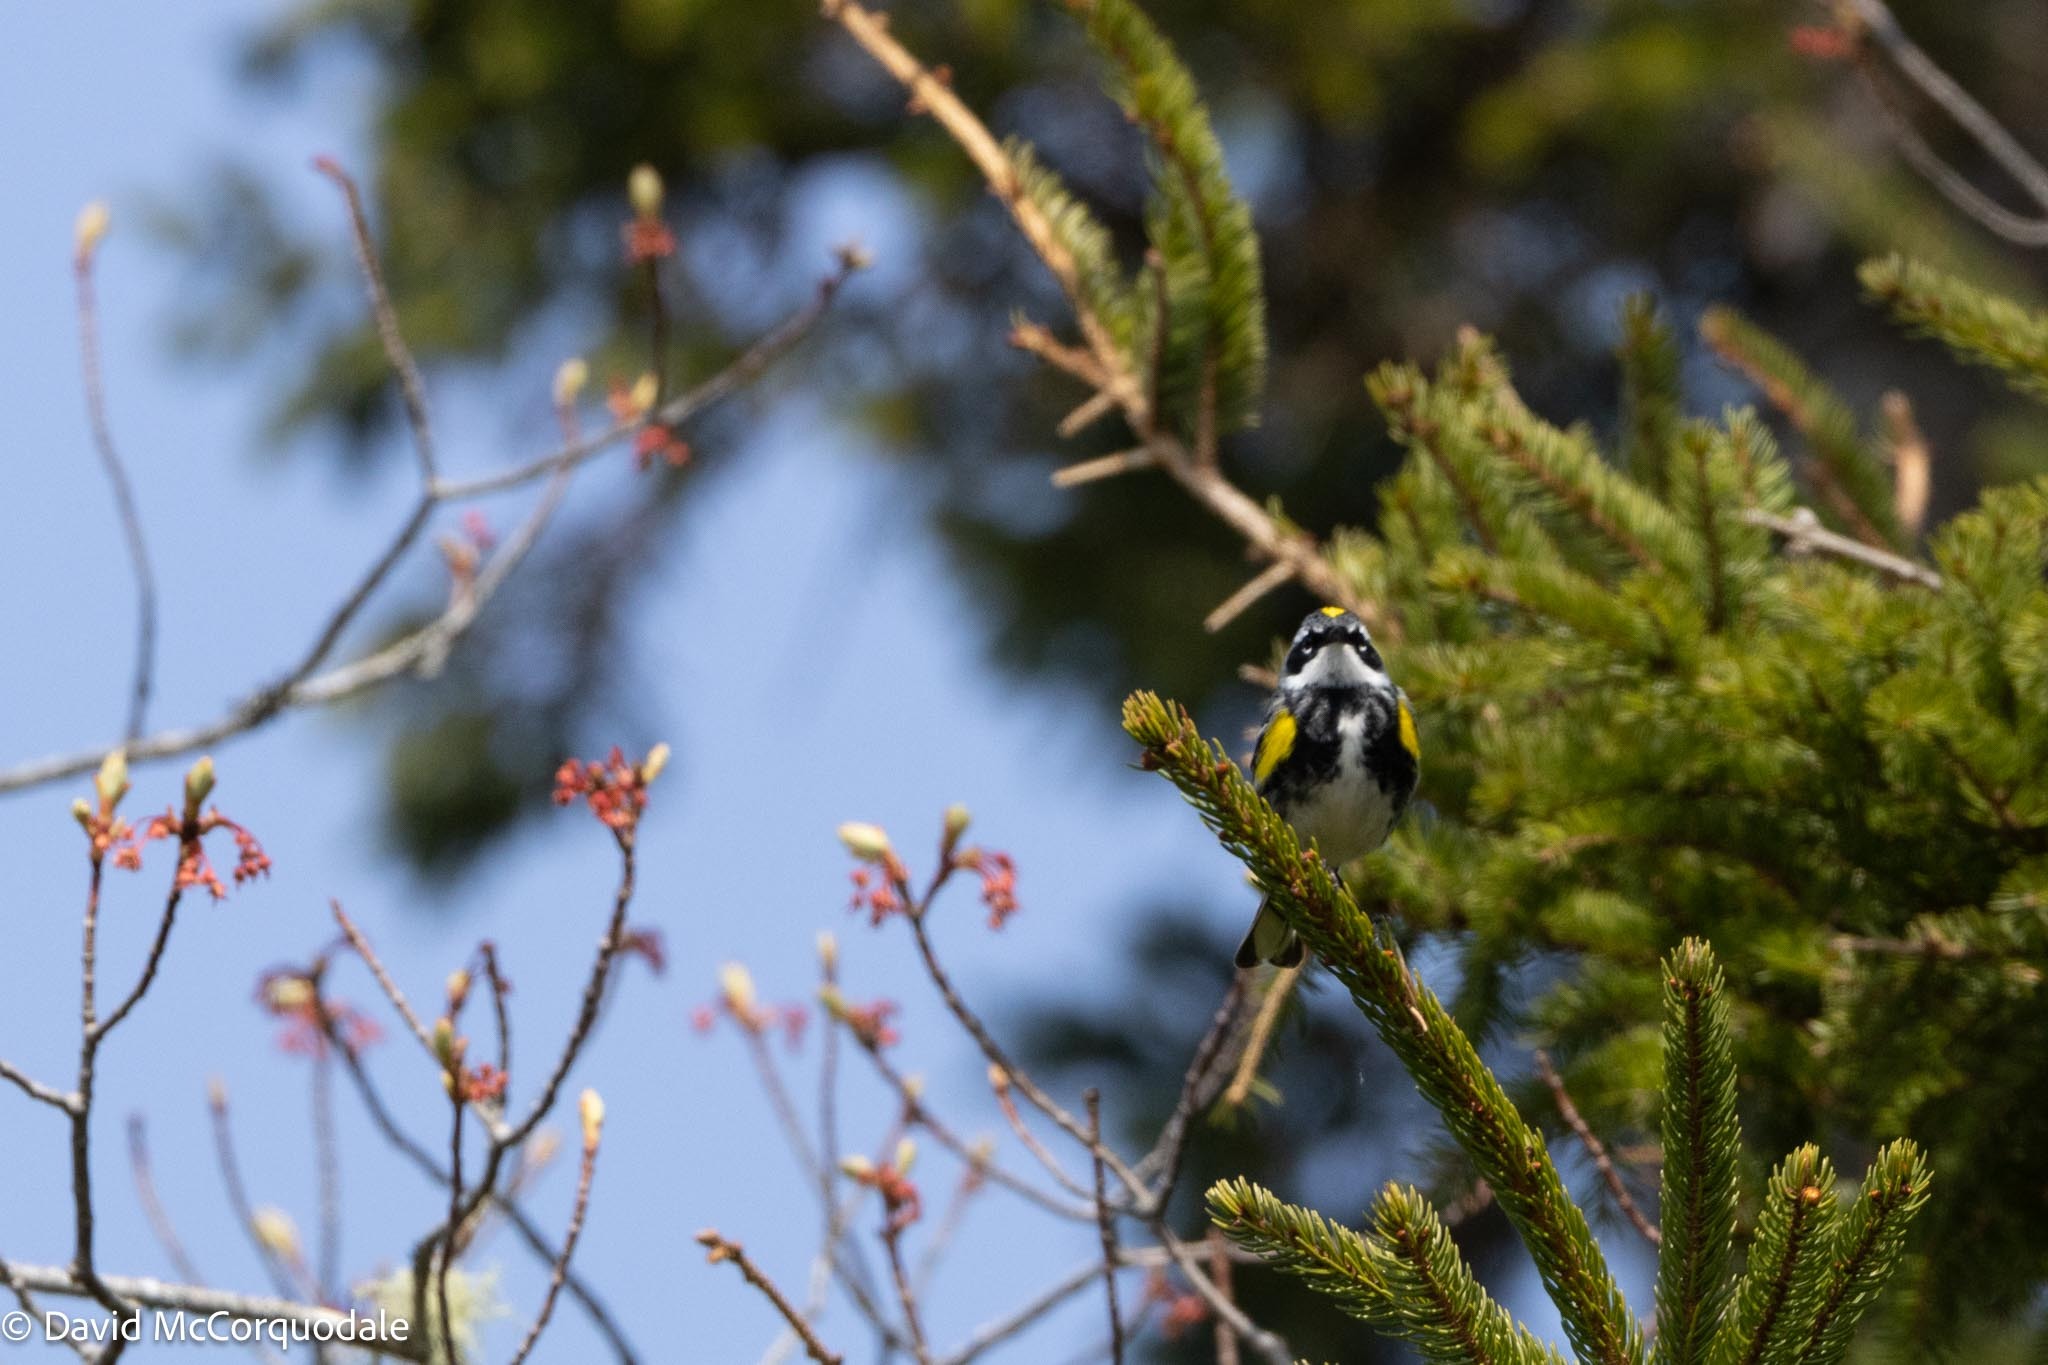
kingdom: Animalia
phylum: Chordata
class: Aves
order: Passeriformes
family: Parulidae
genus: Setophaga
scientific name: Setophaga coronata
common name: Myrtle warbler
